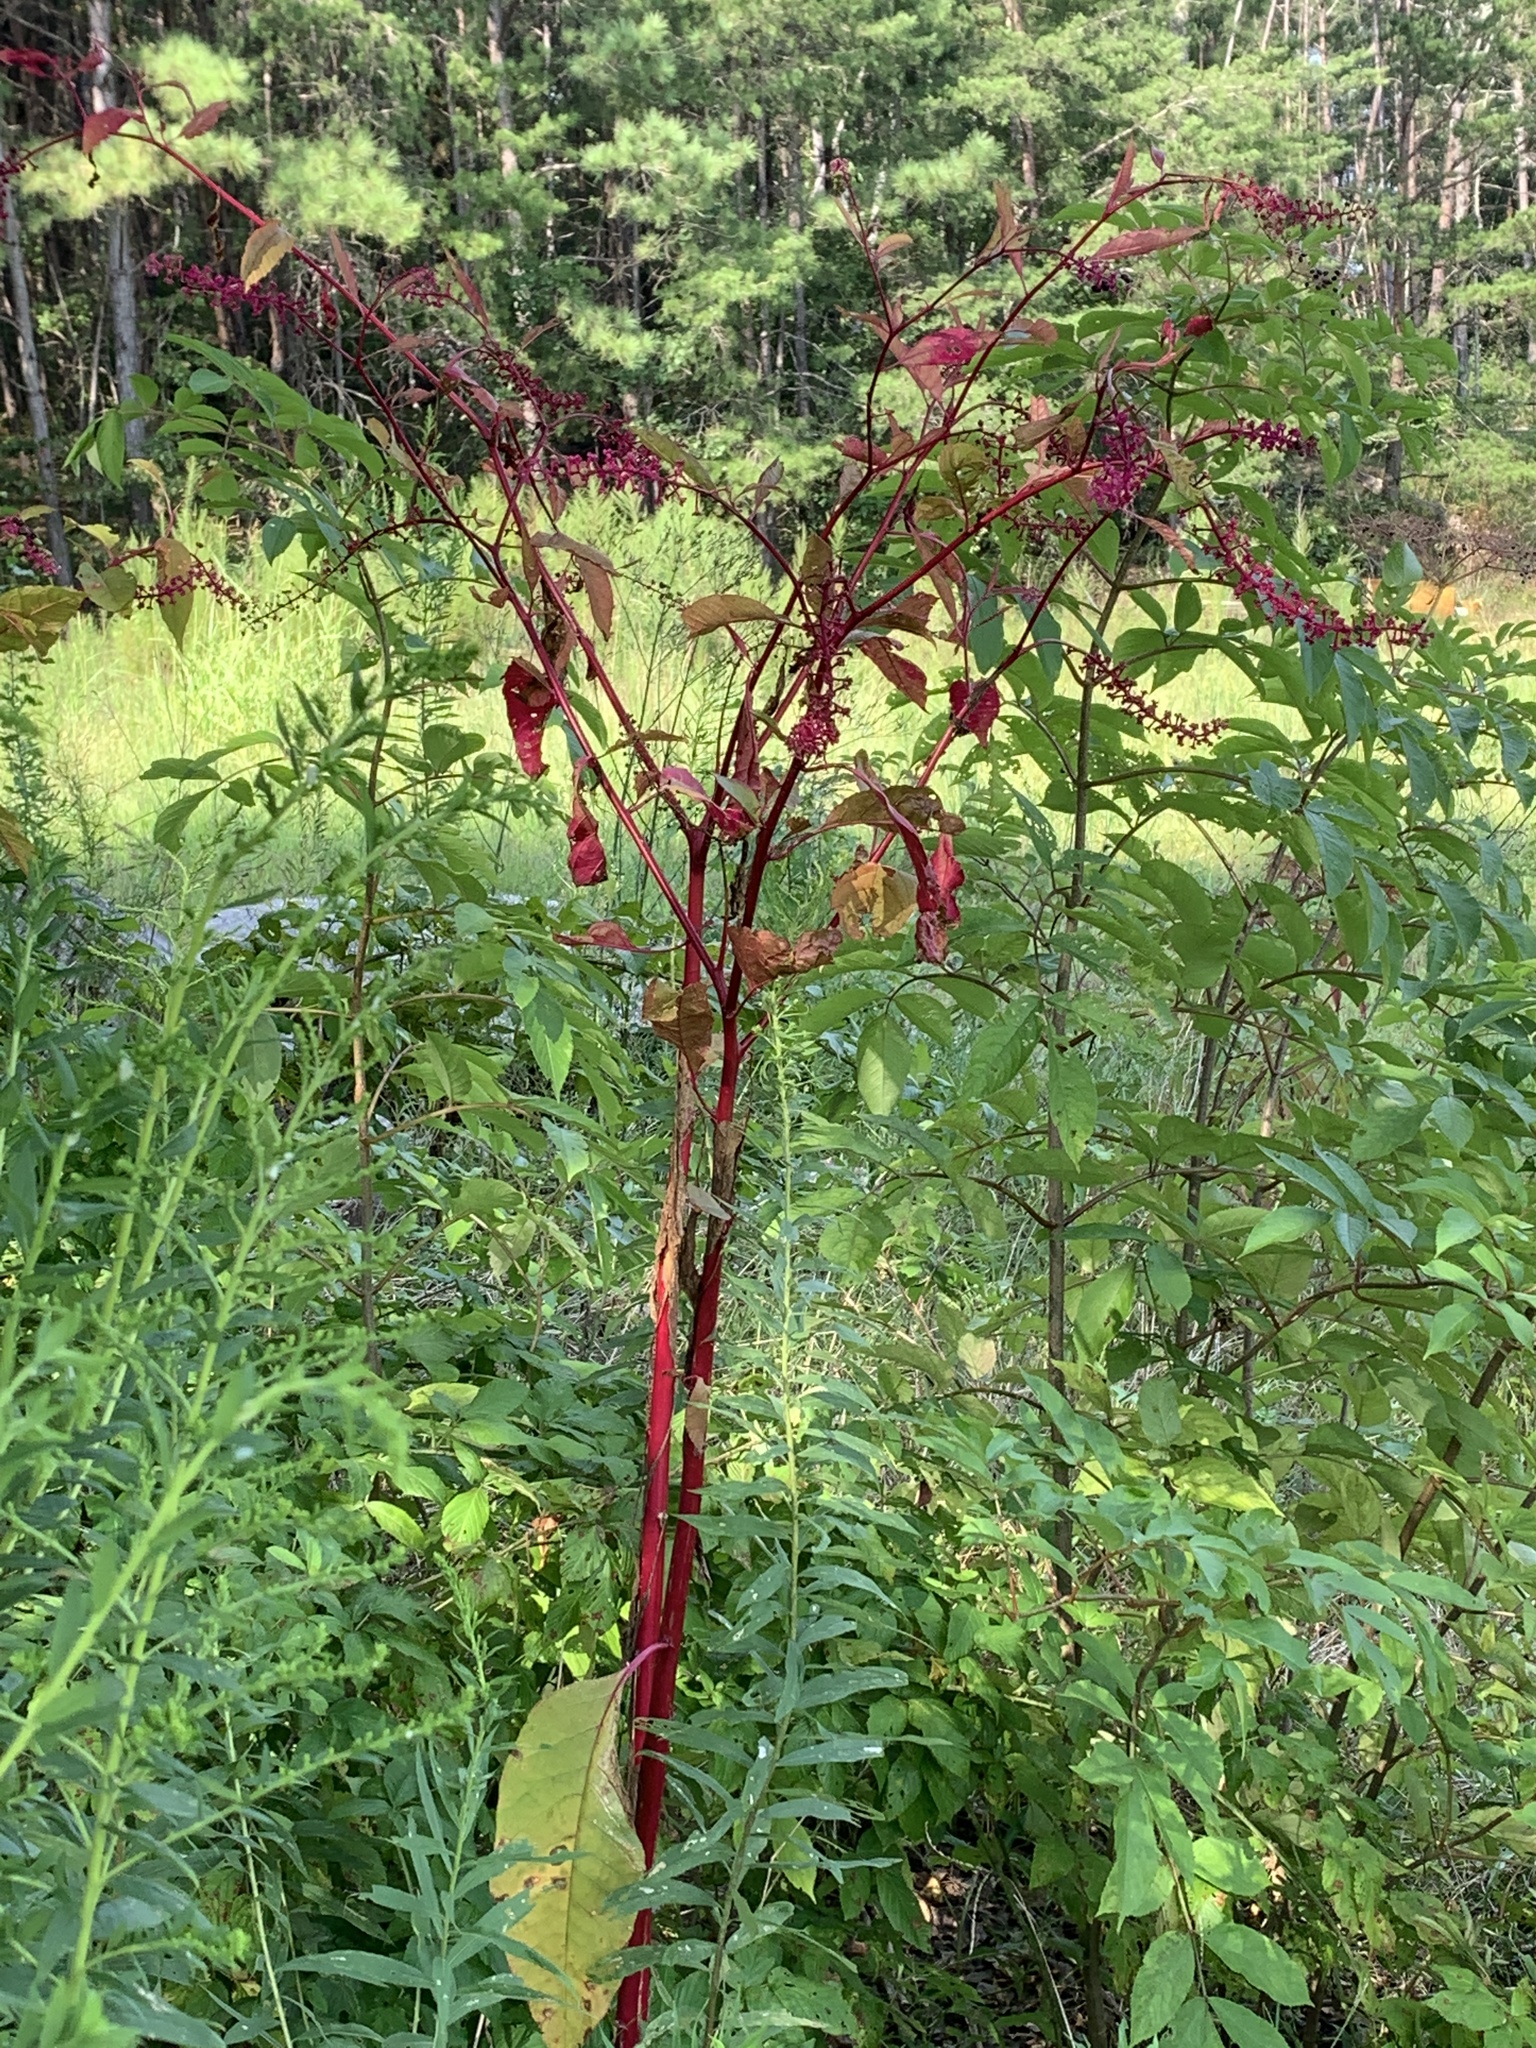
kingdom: Plantae
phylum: Tracheophyta
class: Magnoliopsida
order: Caryophyllales
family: Phytolaccaceae
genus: Phytolacca
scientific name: Phytolacca americana
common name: American pokeweed
